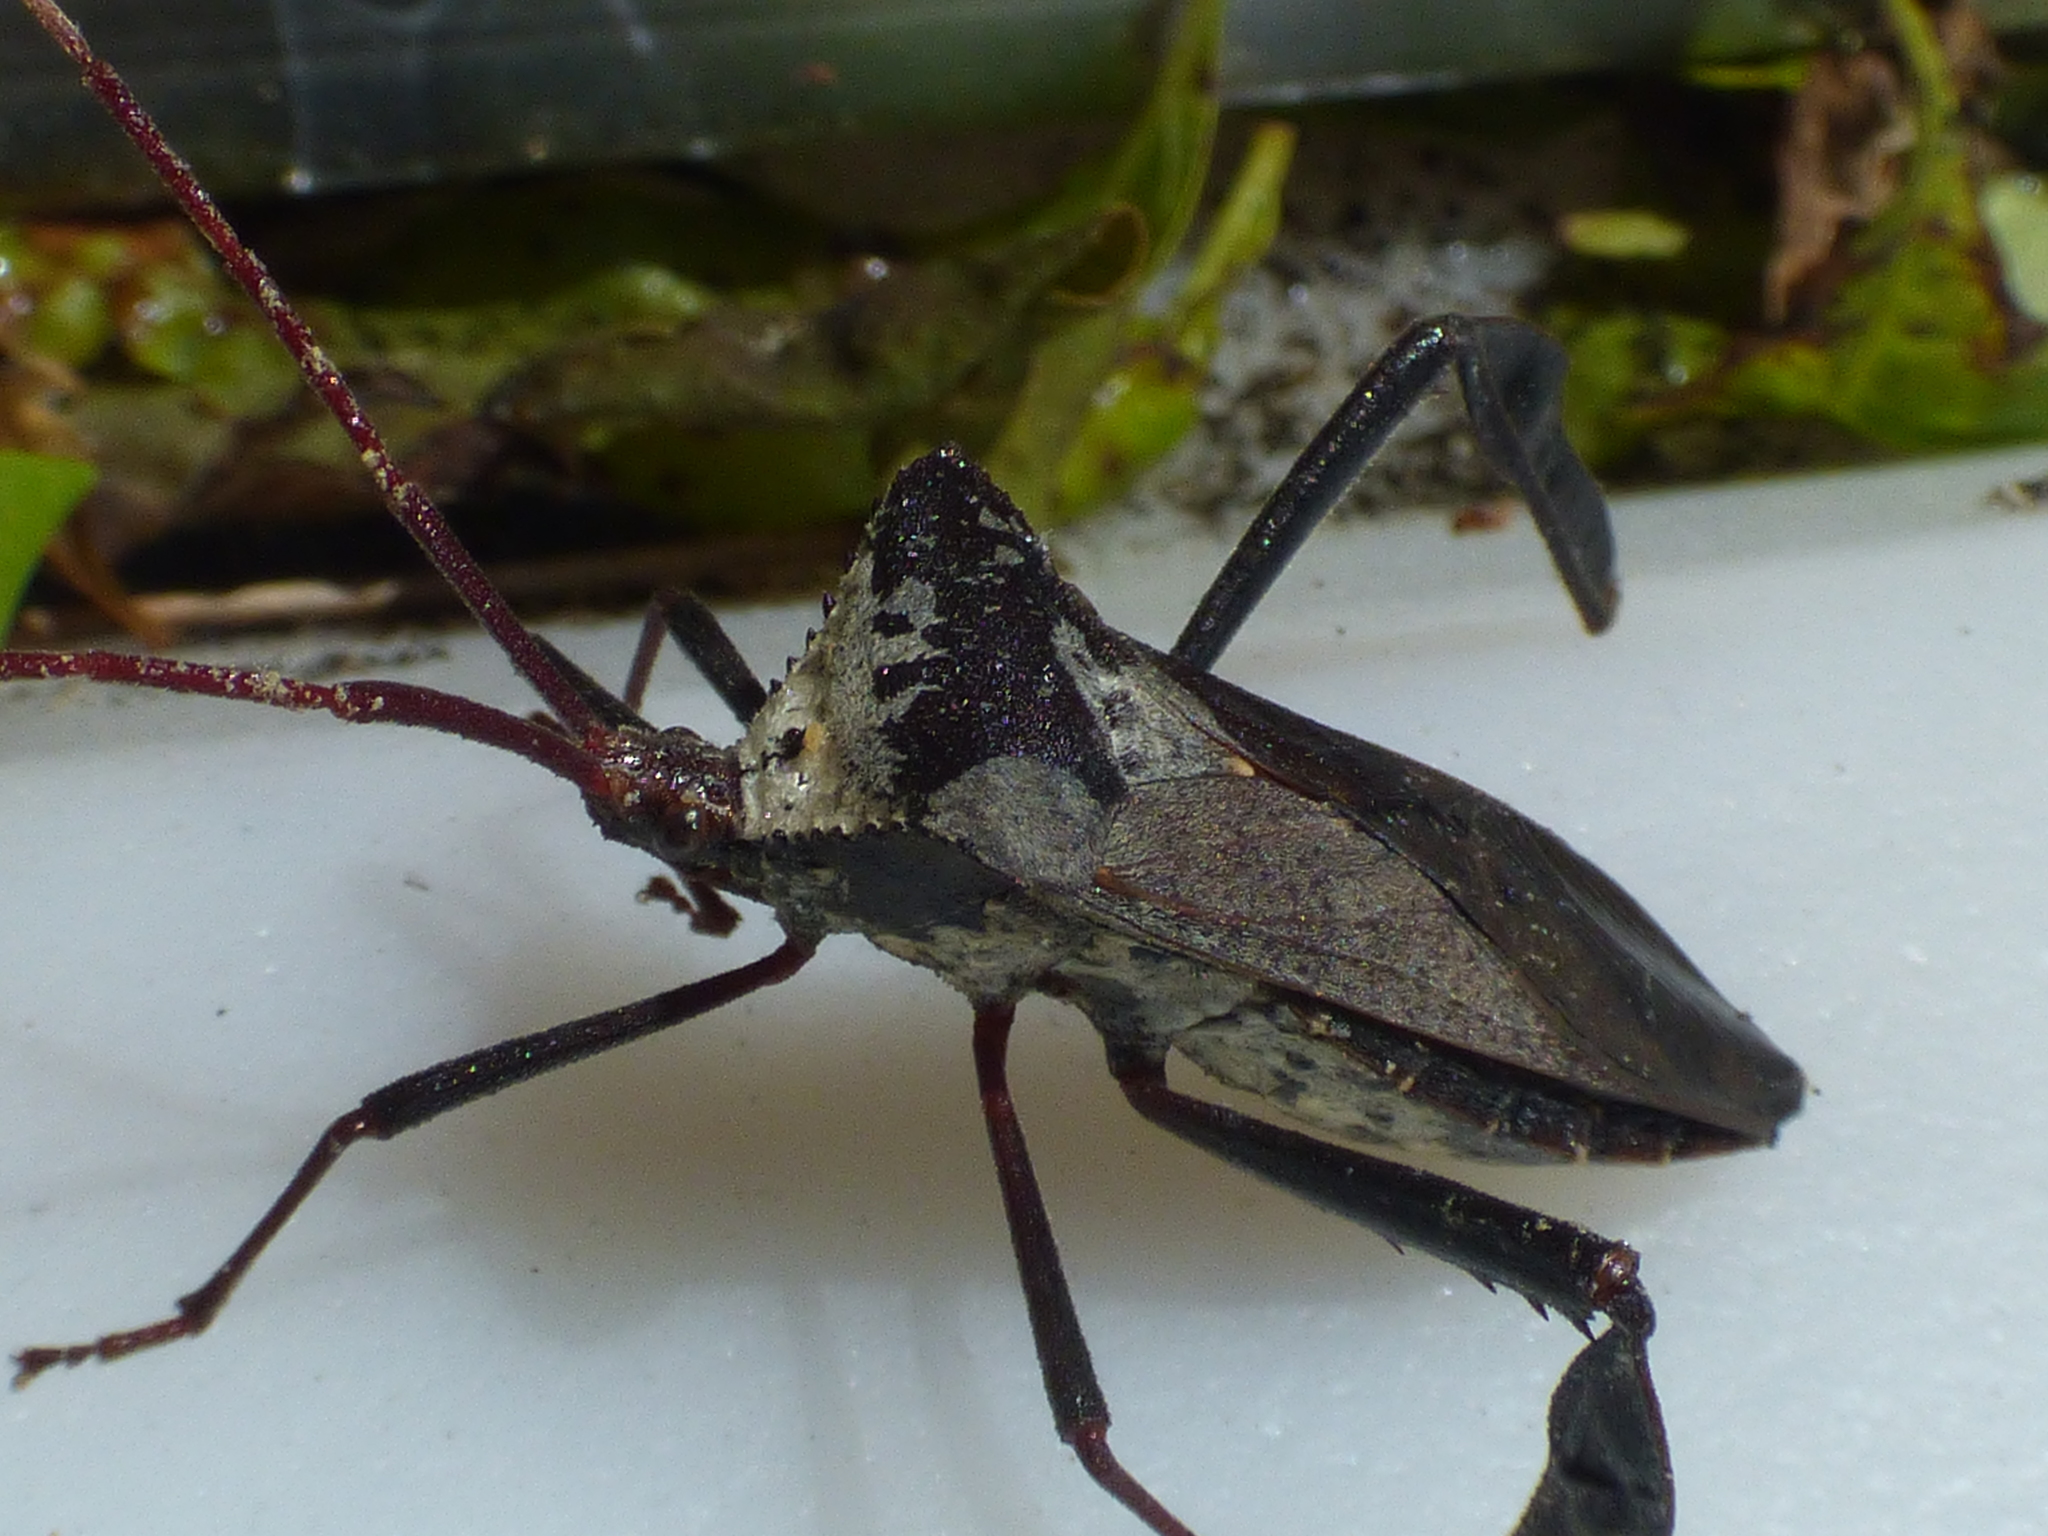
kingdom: Animalia
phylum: Arthropoda
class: Insecta
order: Hemiptera
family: Coreidae
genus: Acanthocephala
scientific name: Acanthocephala declivis
